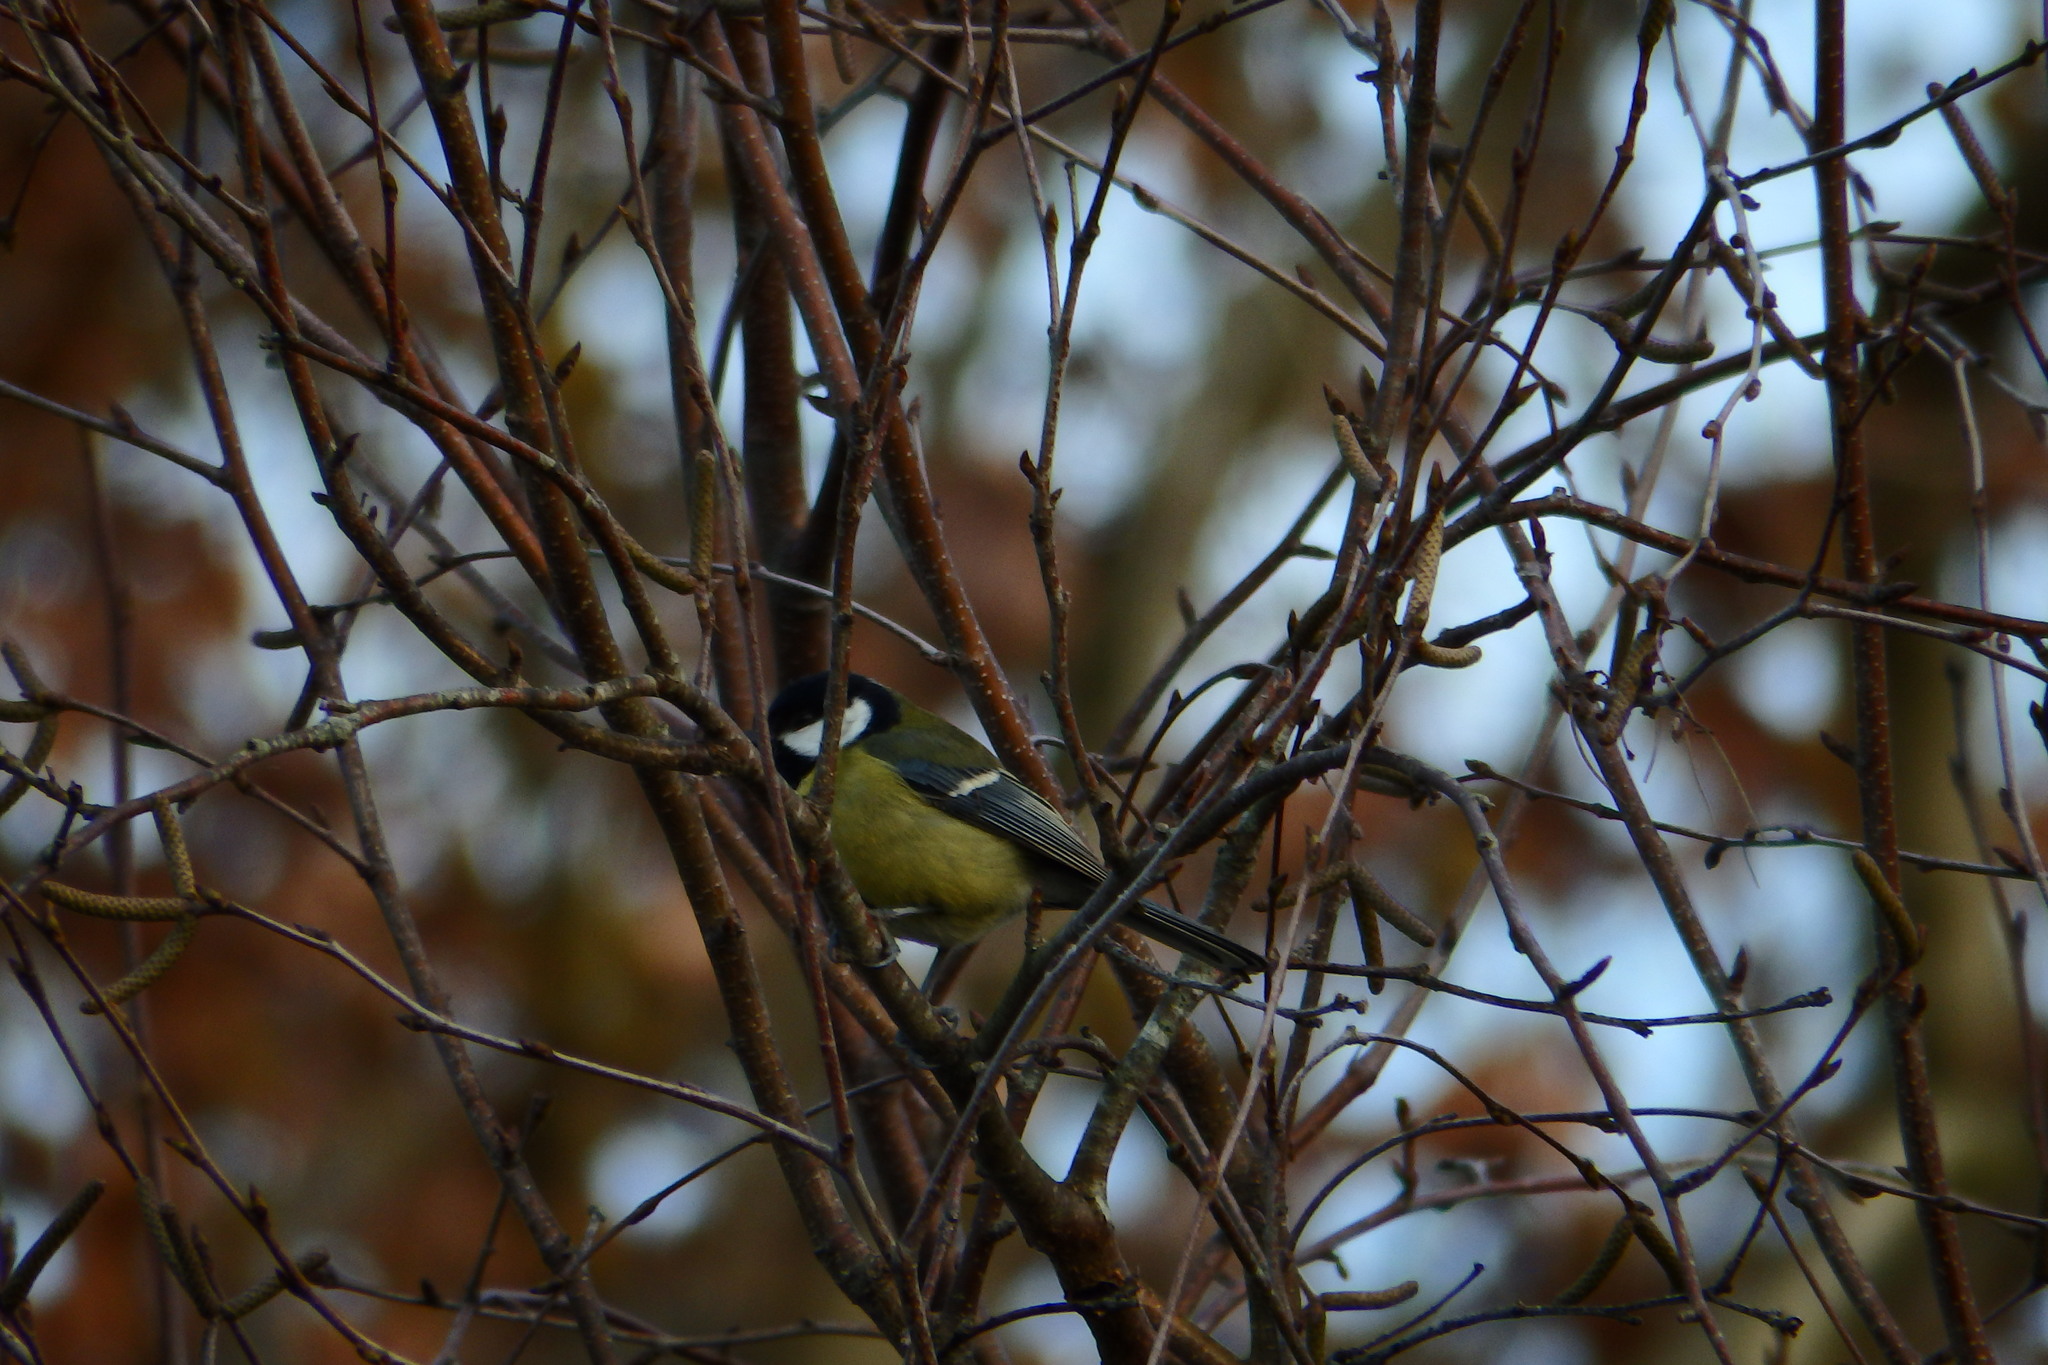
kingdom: Animalia
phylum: Chordata
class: Aves
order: Passeriformes
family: Paridae
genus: Parus
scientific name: Parus major
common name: Great tit
